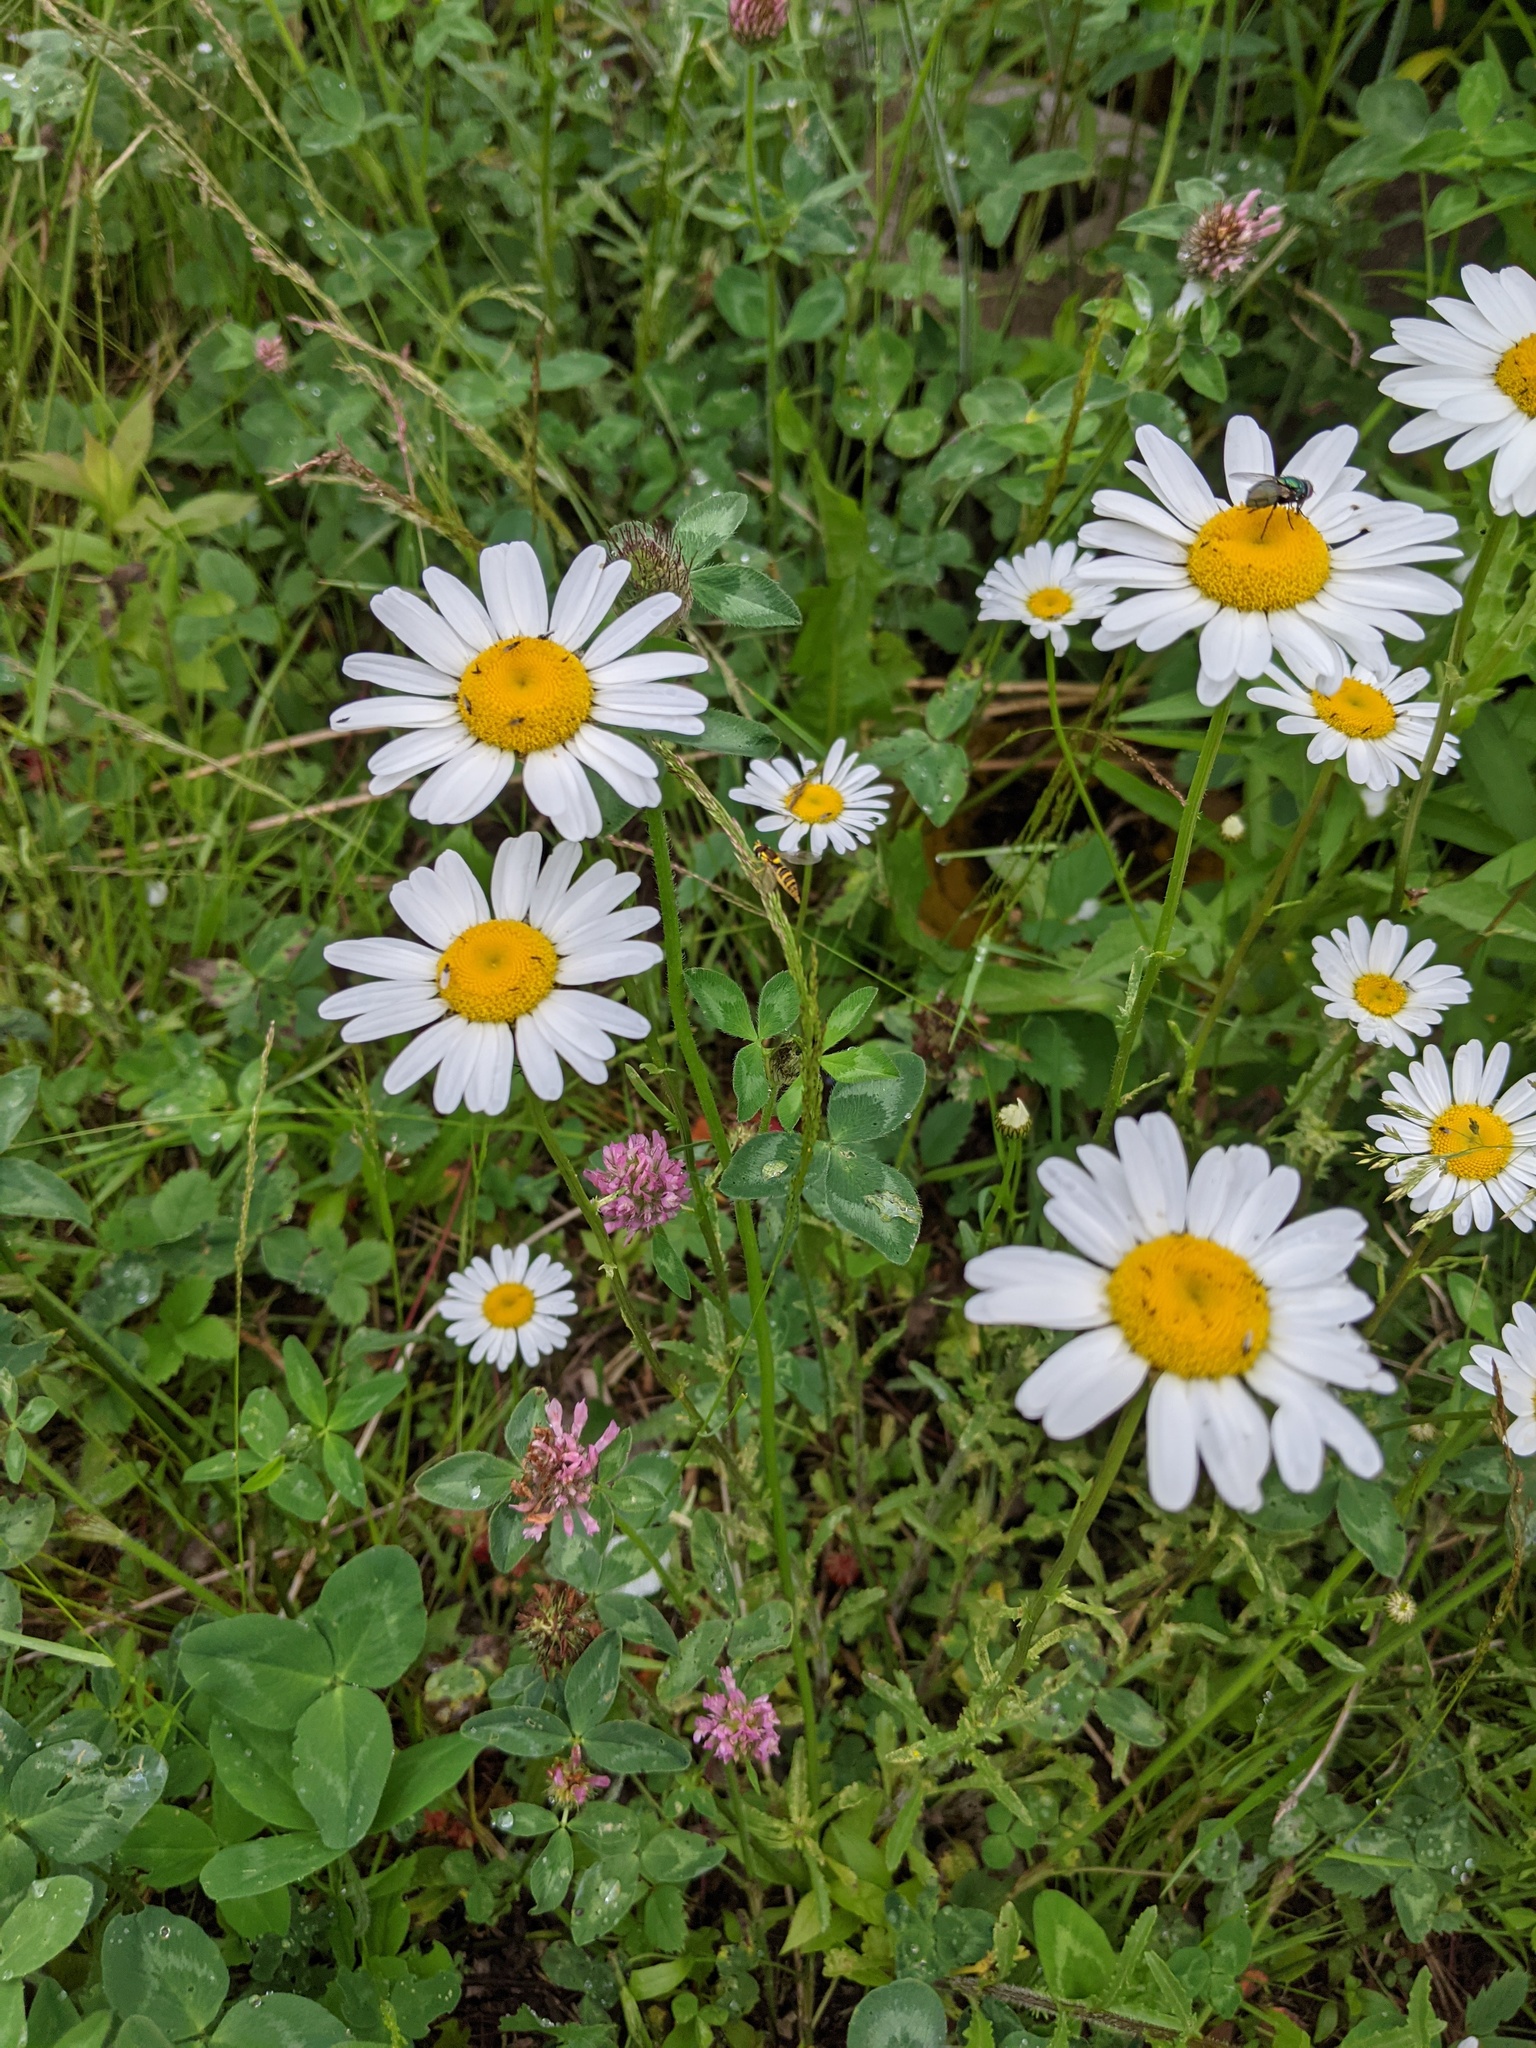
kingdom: Plantae
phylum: Tracheophyta
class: Magnoliopsida
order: Asterales
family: Asteraceae
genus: Leucanthemum
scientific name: Leucanthemum vulgare
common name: Oxeye daisy
